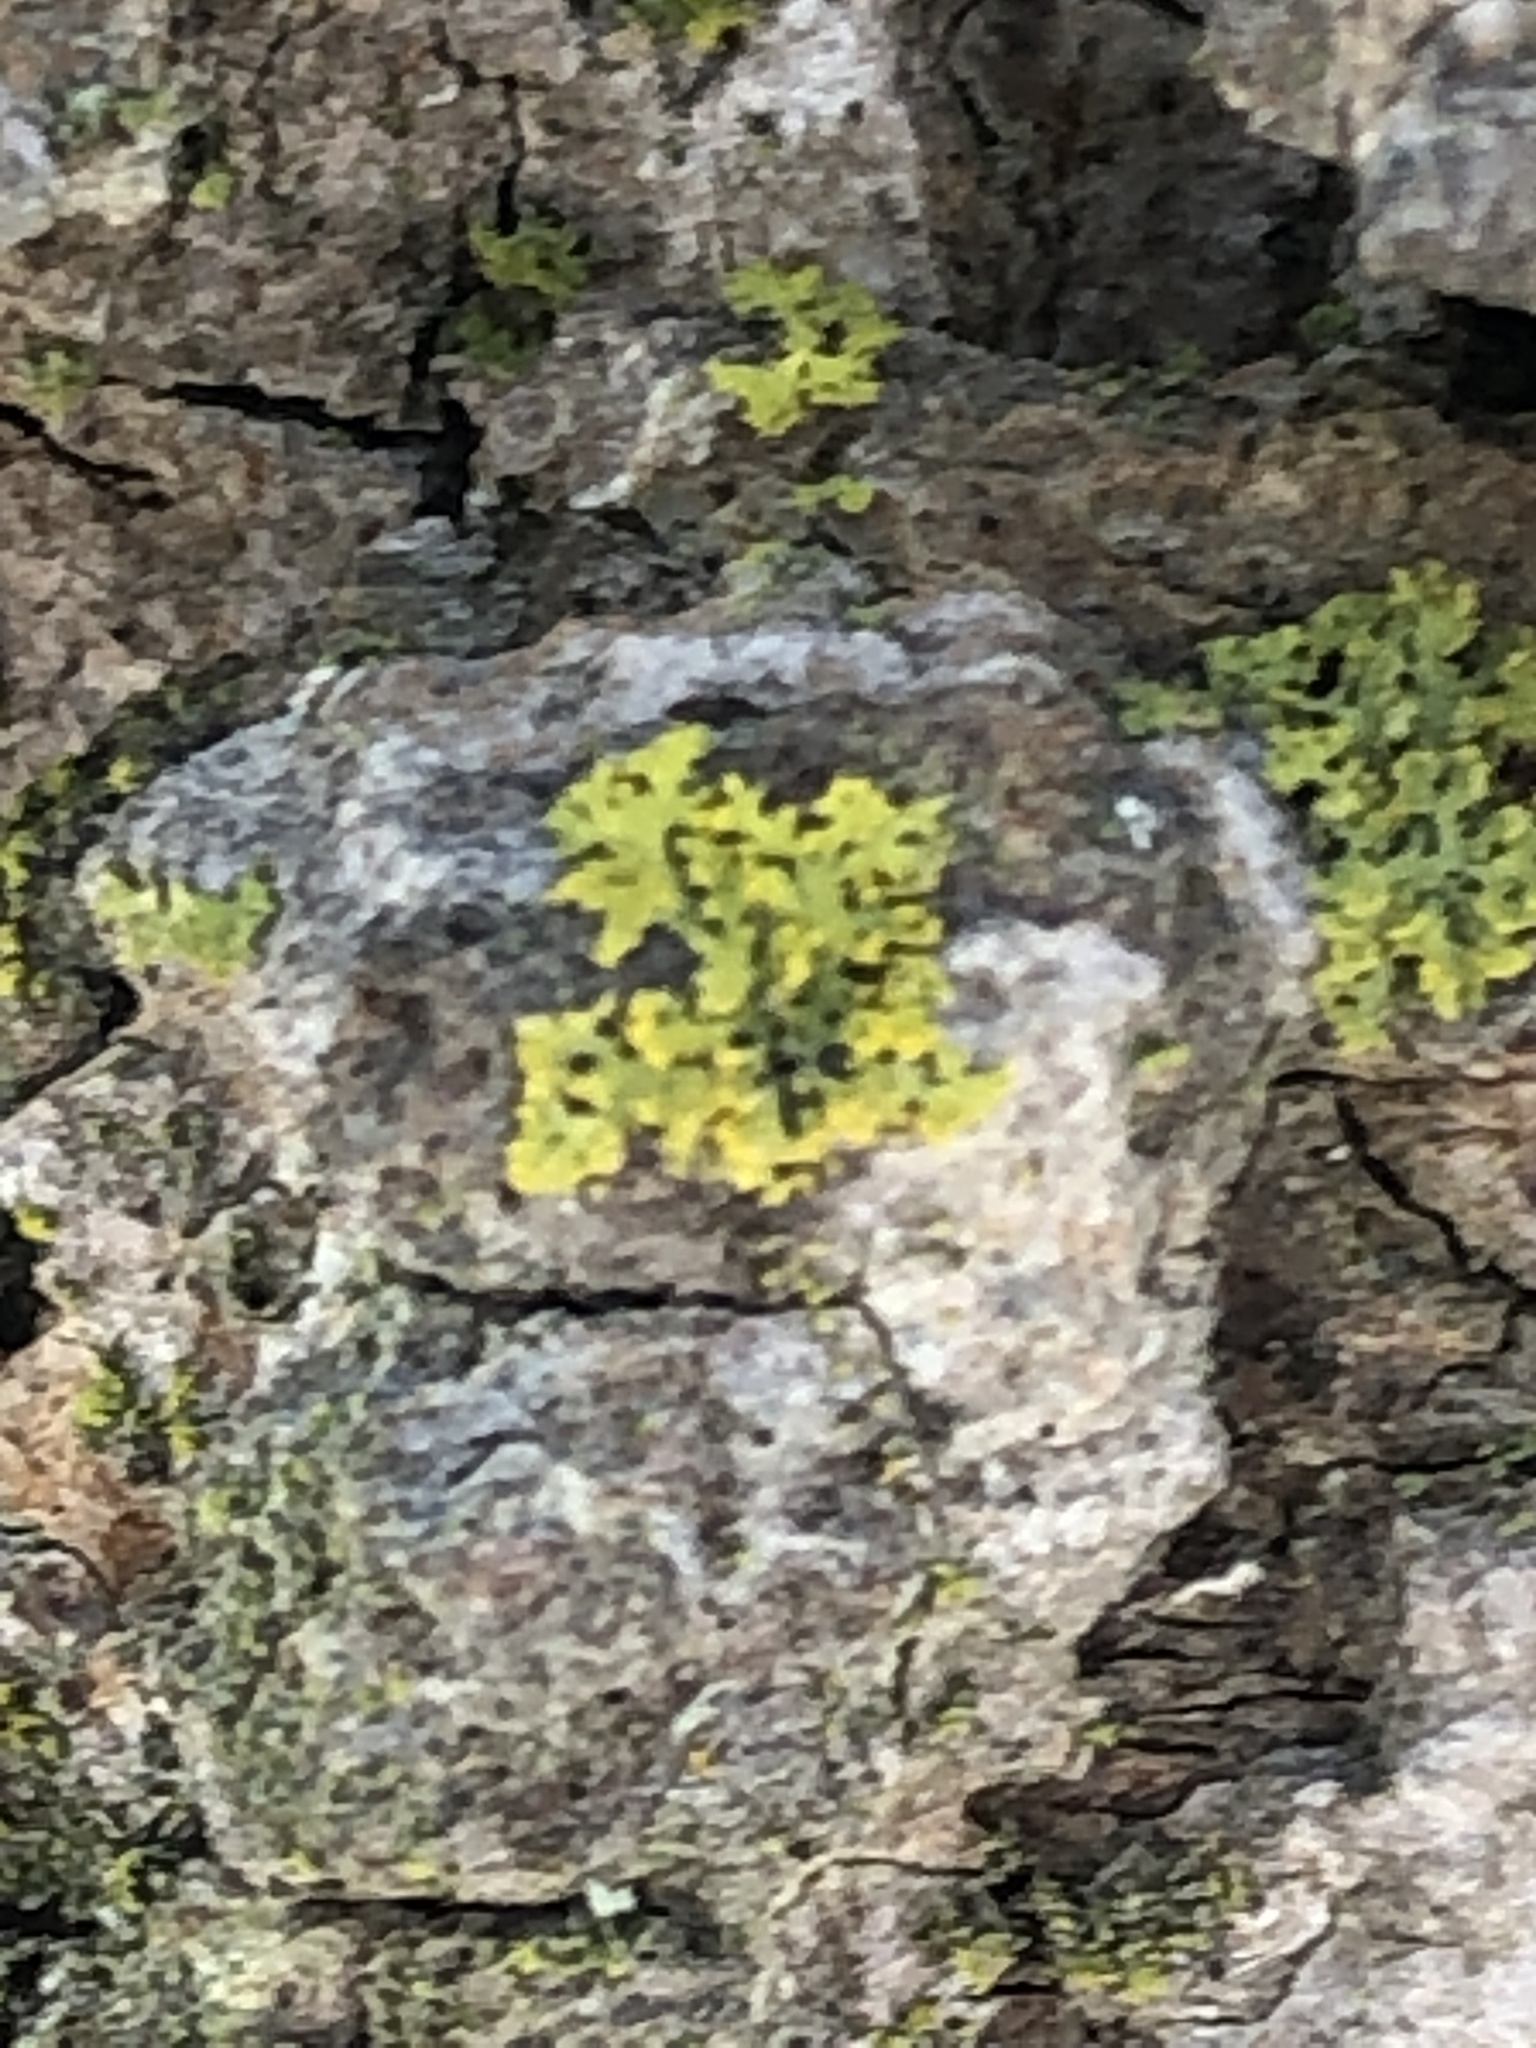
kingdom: Fungi
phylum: Ascomycota
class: Candelariomycetes
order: Candelariales
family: Candelariaceae
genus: Candelaria
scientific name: Candelaria concolor
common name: Candleflame lichen
